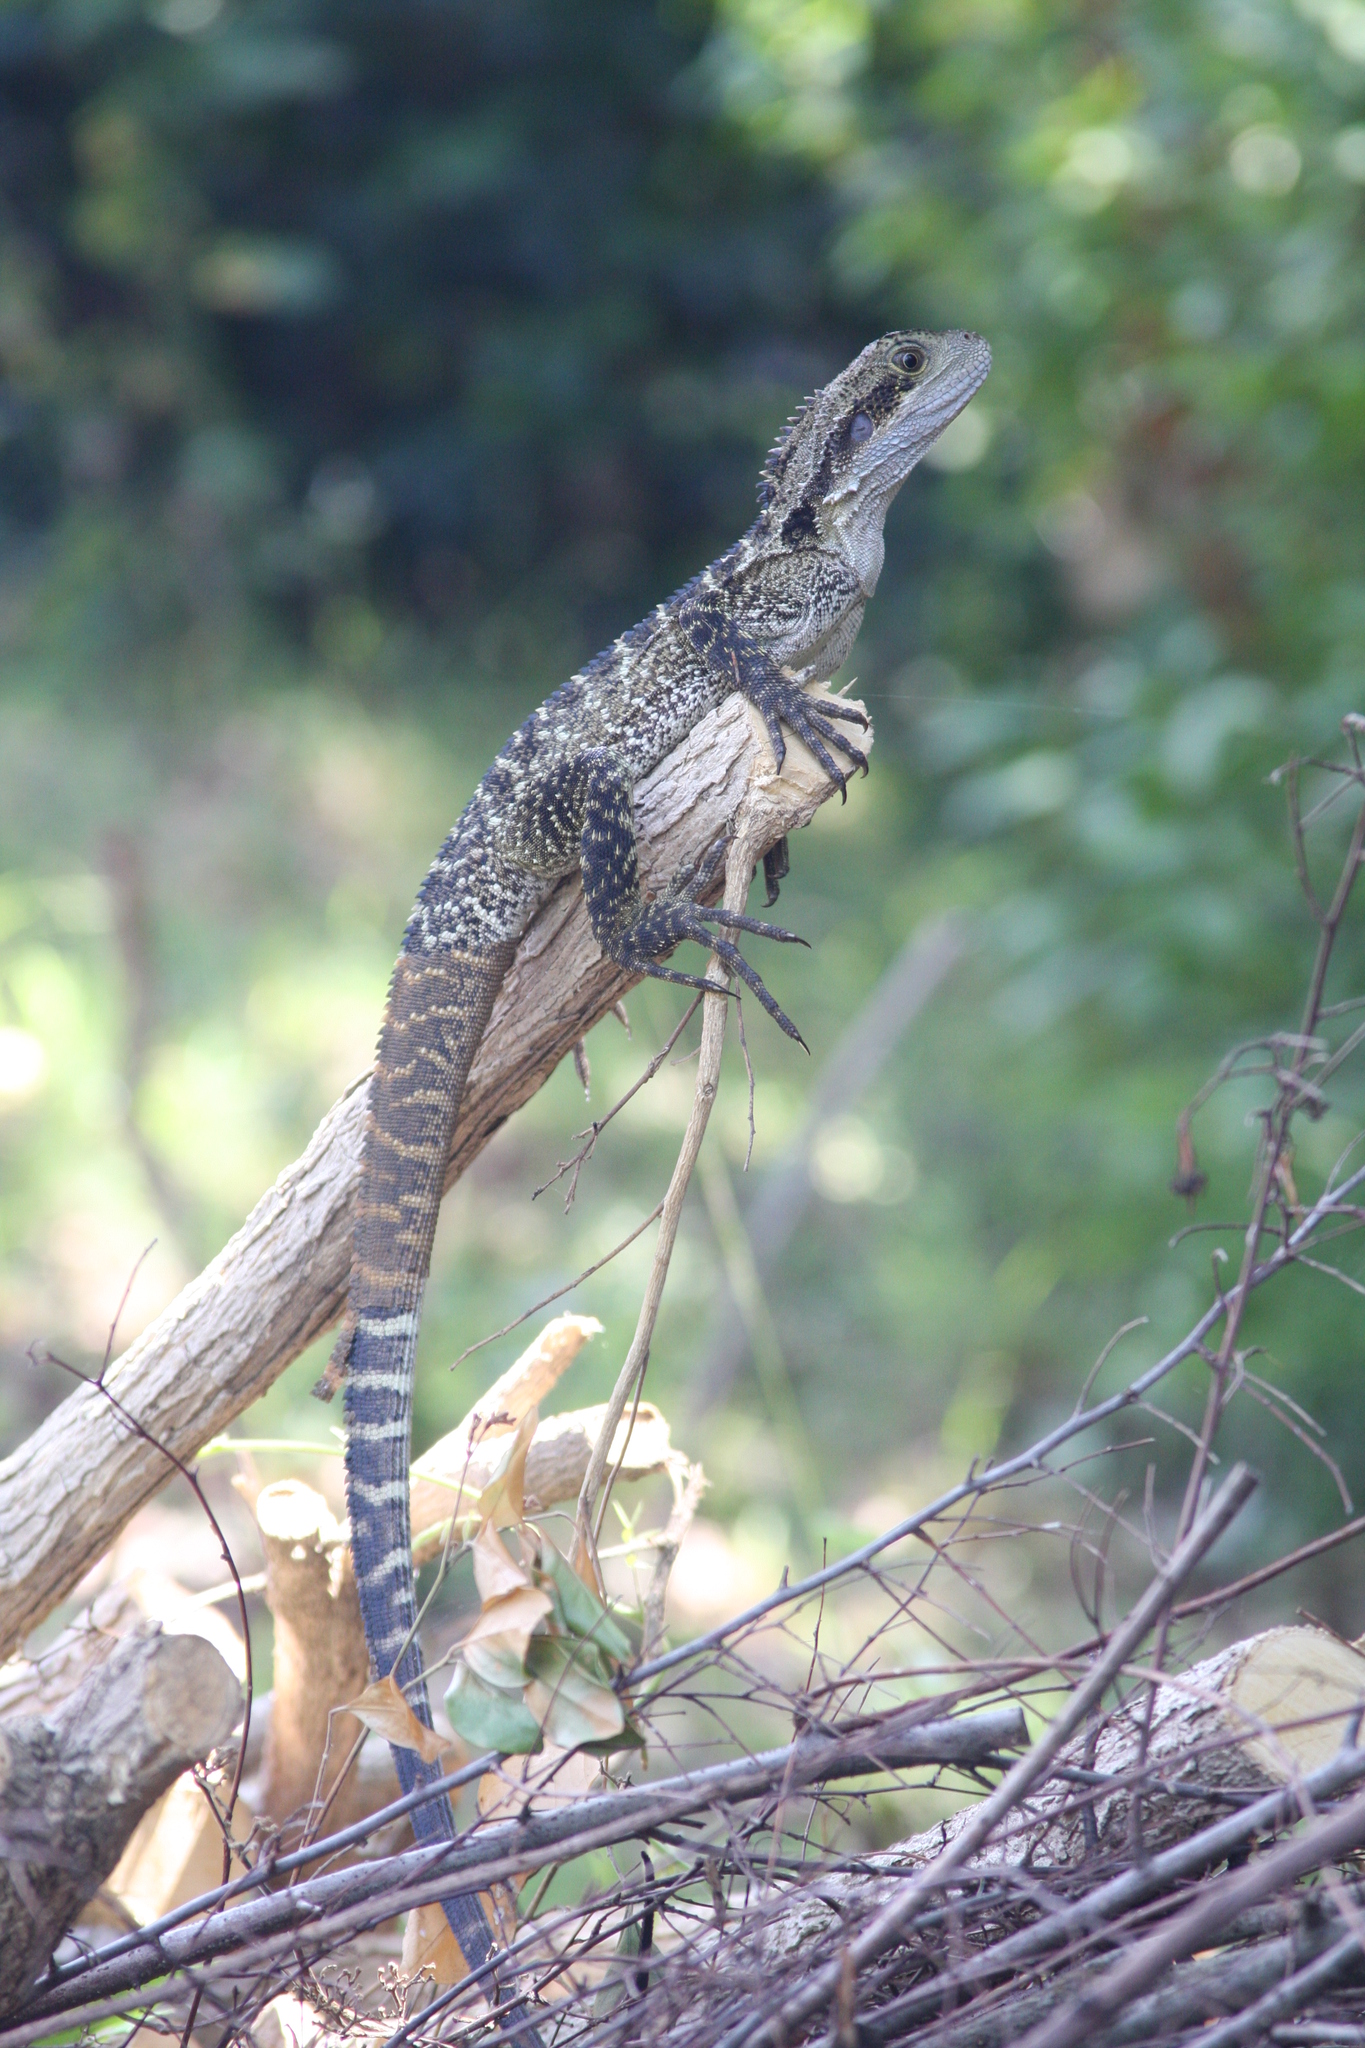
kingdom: Animalia
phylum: Chordata
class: Squamata
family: Agamidae
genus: Intellagama
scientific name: Intellagama lesueurii
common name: Eastern water dragon
